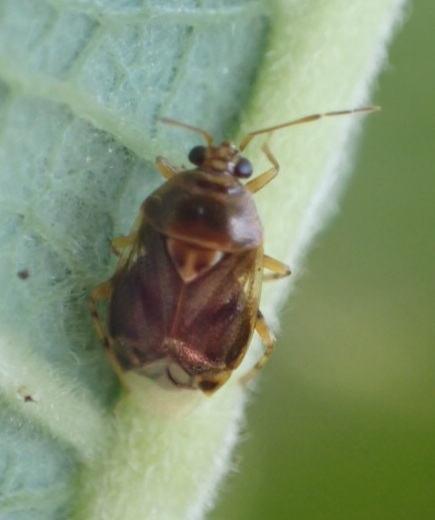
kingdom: Animalia
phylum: Arthropoda
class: Insecta
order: Hemiptera
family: Miridae
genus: Deraeocoris
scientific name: Deraeocoris lutescens
